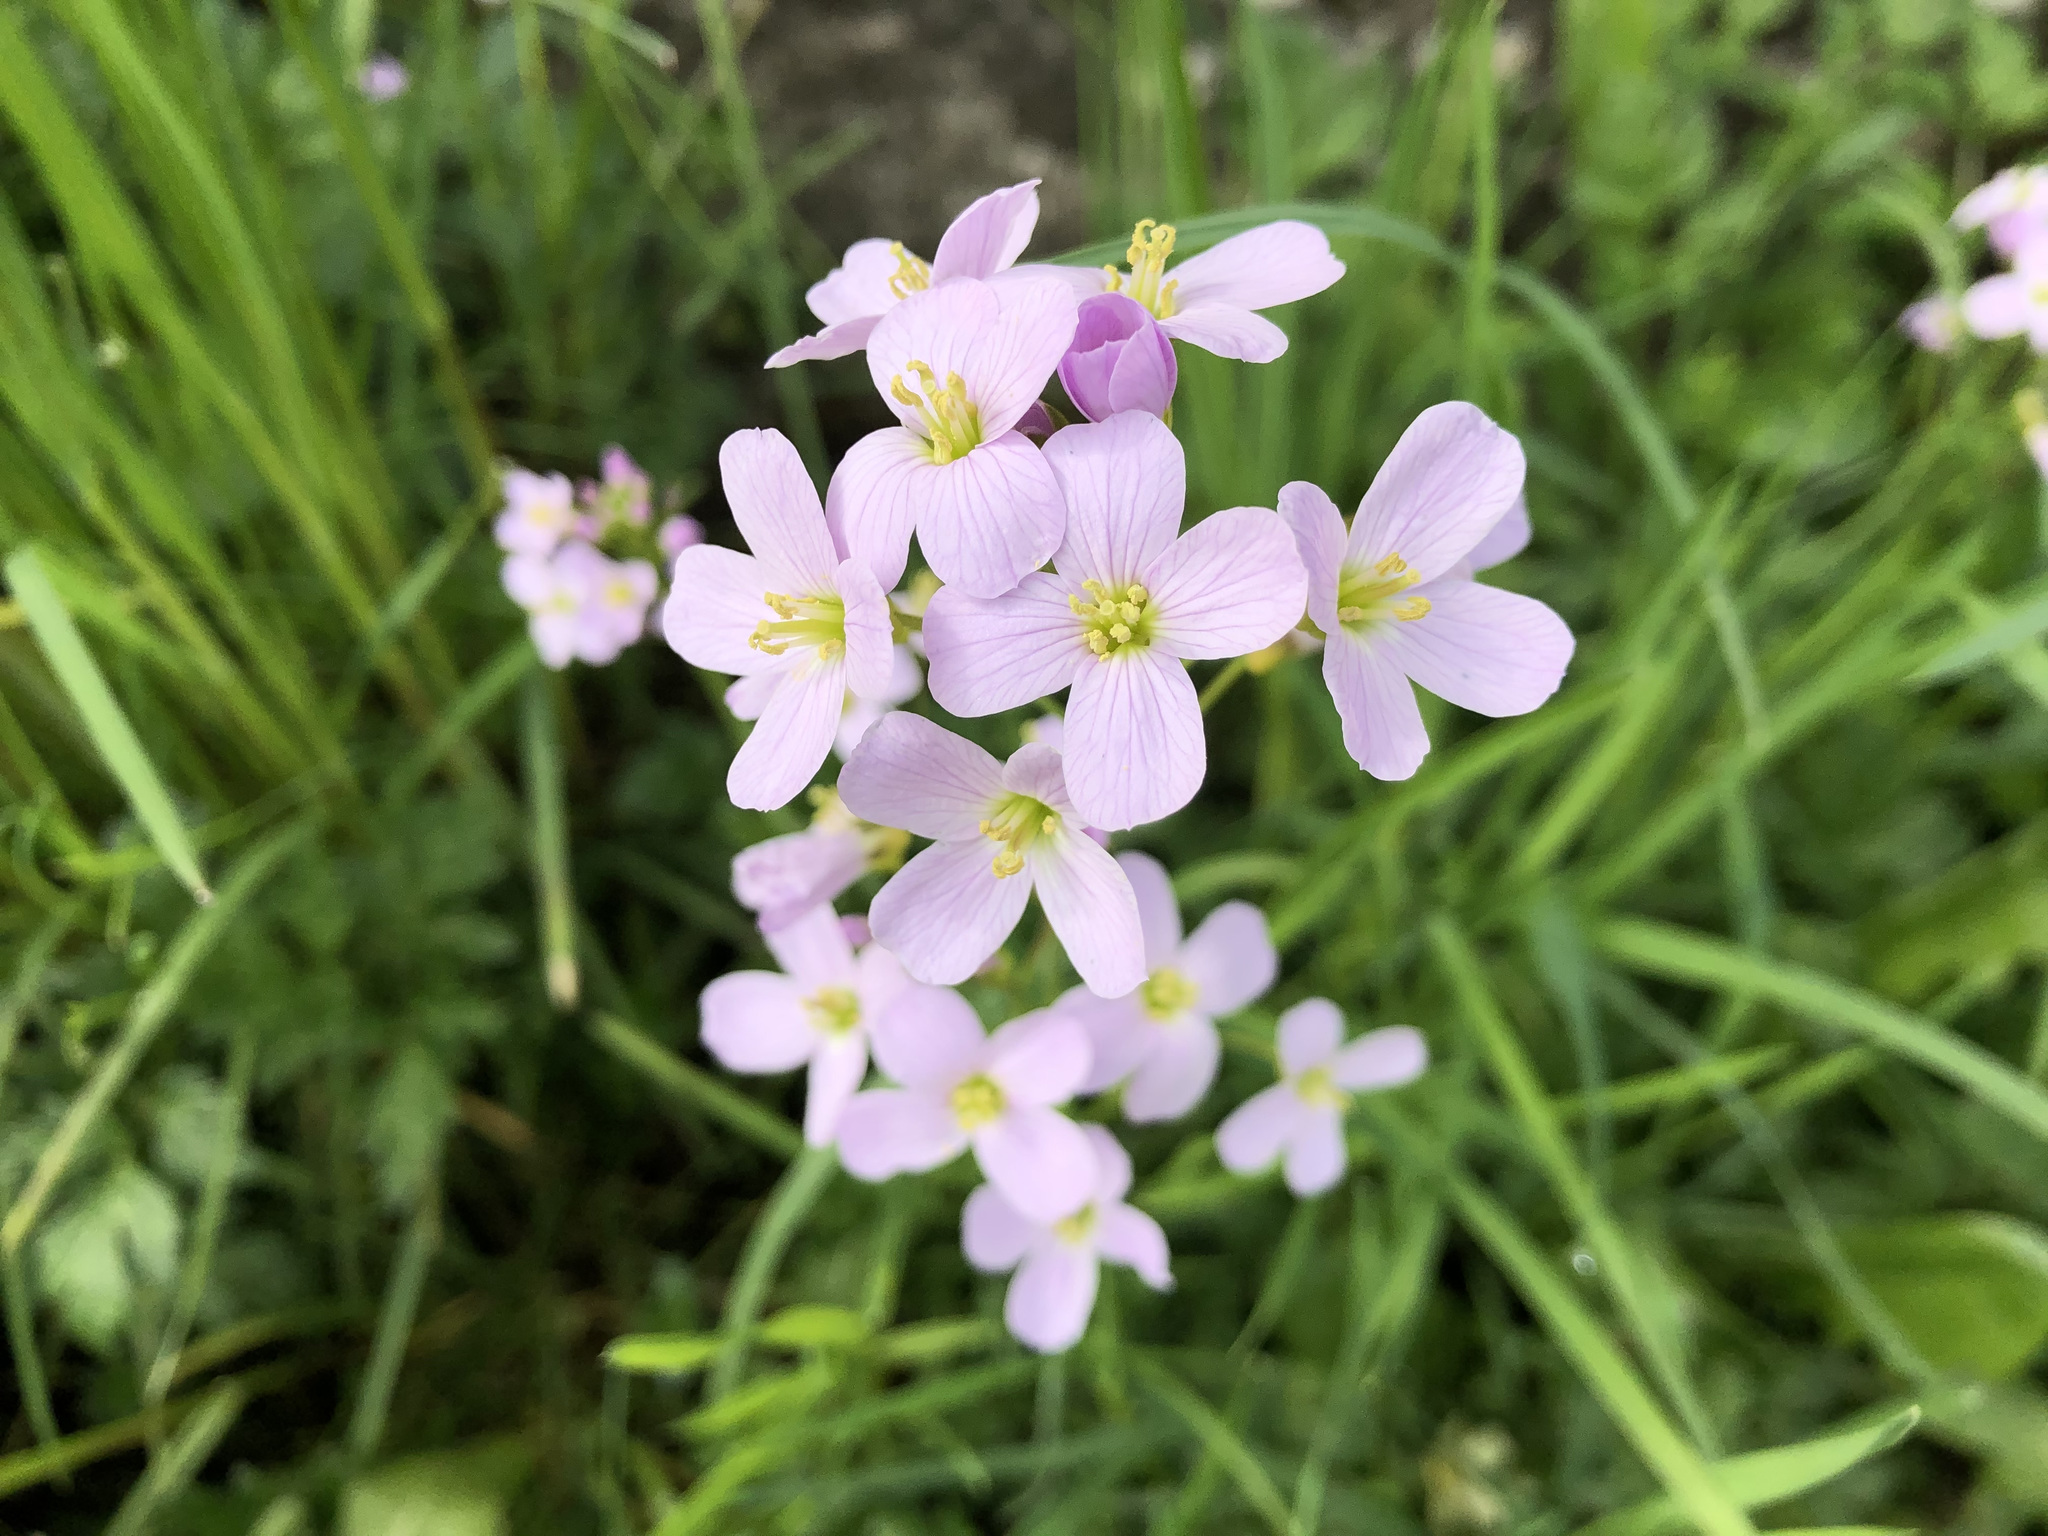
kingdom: Plantae
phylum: Tracheophyta
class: Magnoliopsida
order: Brassicales
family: Brassicaceae
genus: Cardamine
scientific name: Cardamine pratensis
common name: Cuckoo flower
